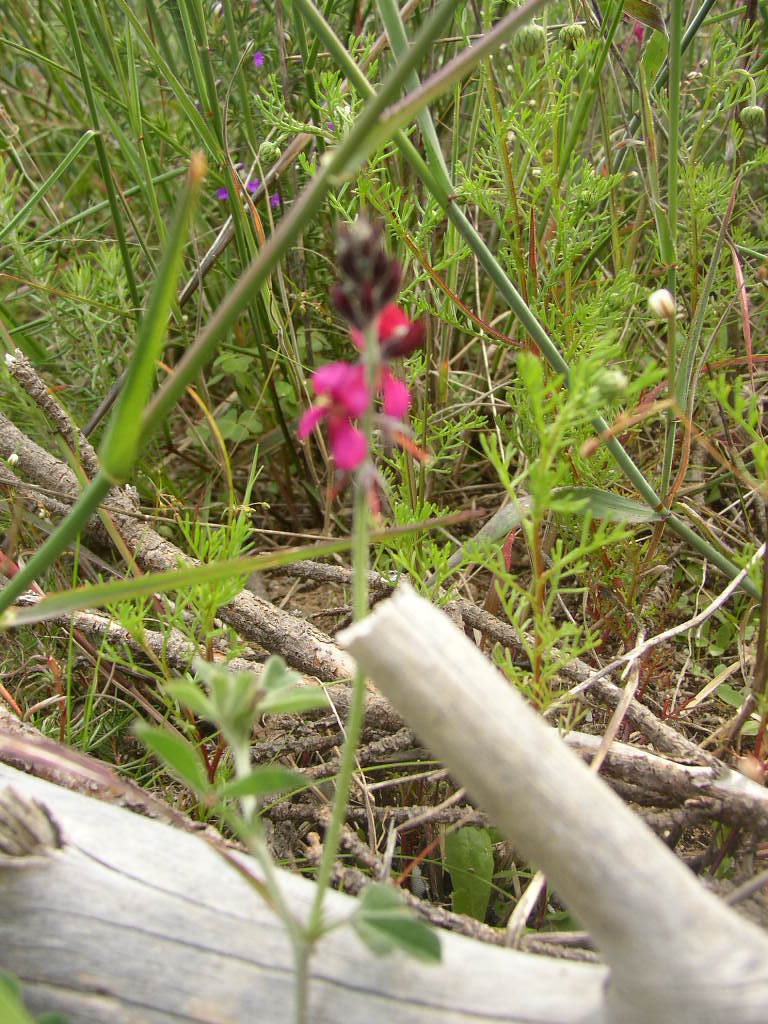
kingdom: Plantae
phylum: Tracheophyta
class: Magnoliopsida
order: Fabales
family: Fabaceae
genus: Indigofera
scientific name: Indigofera incana
